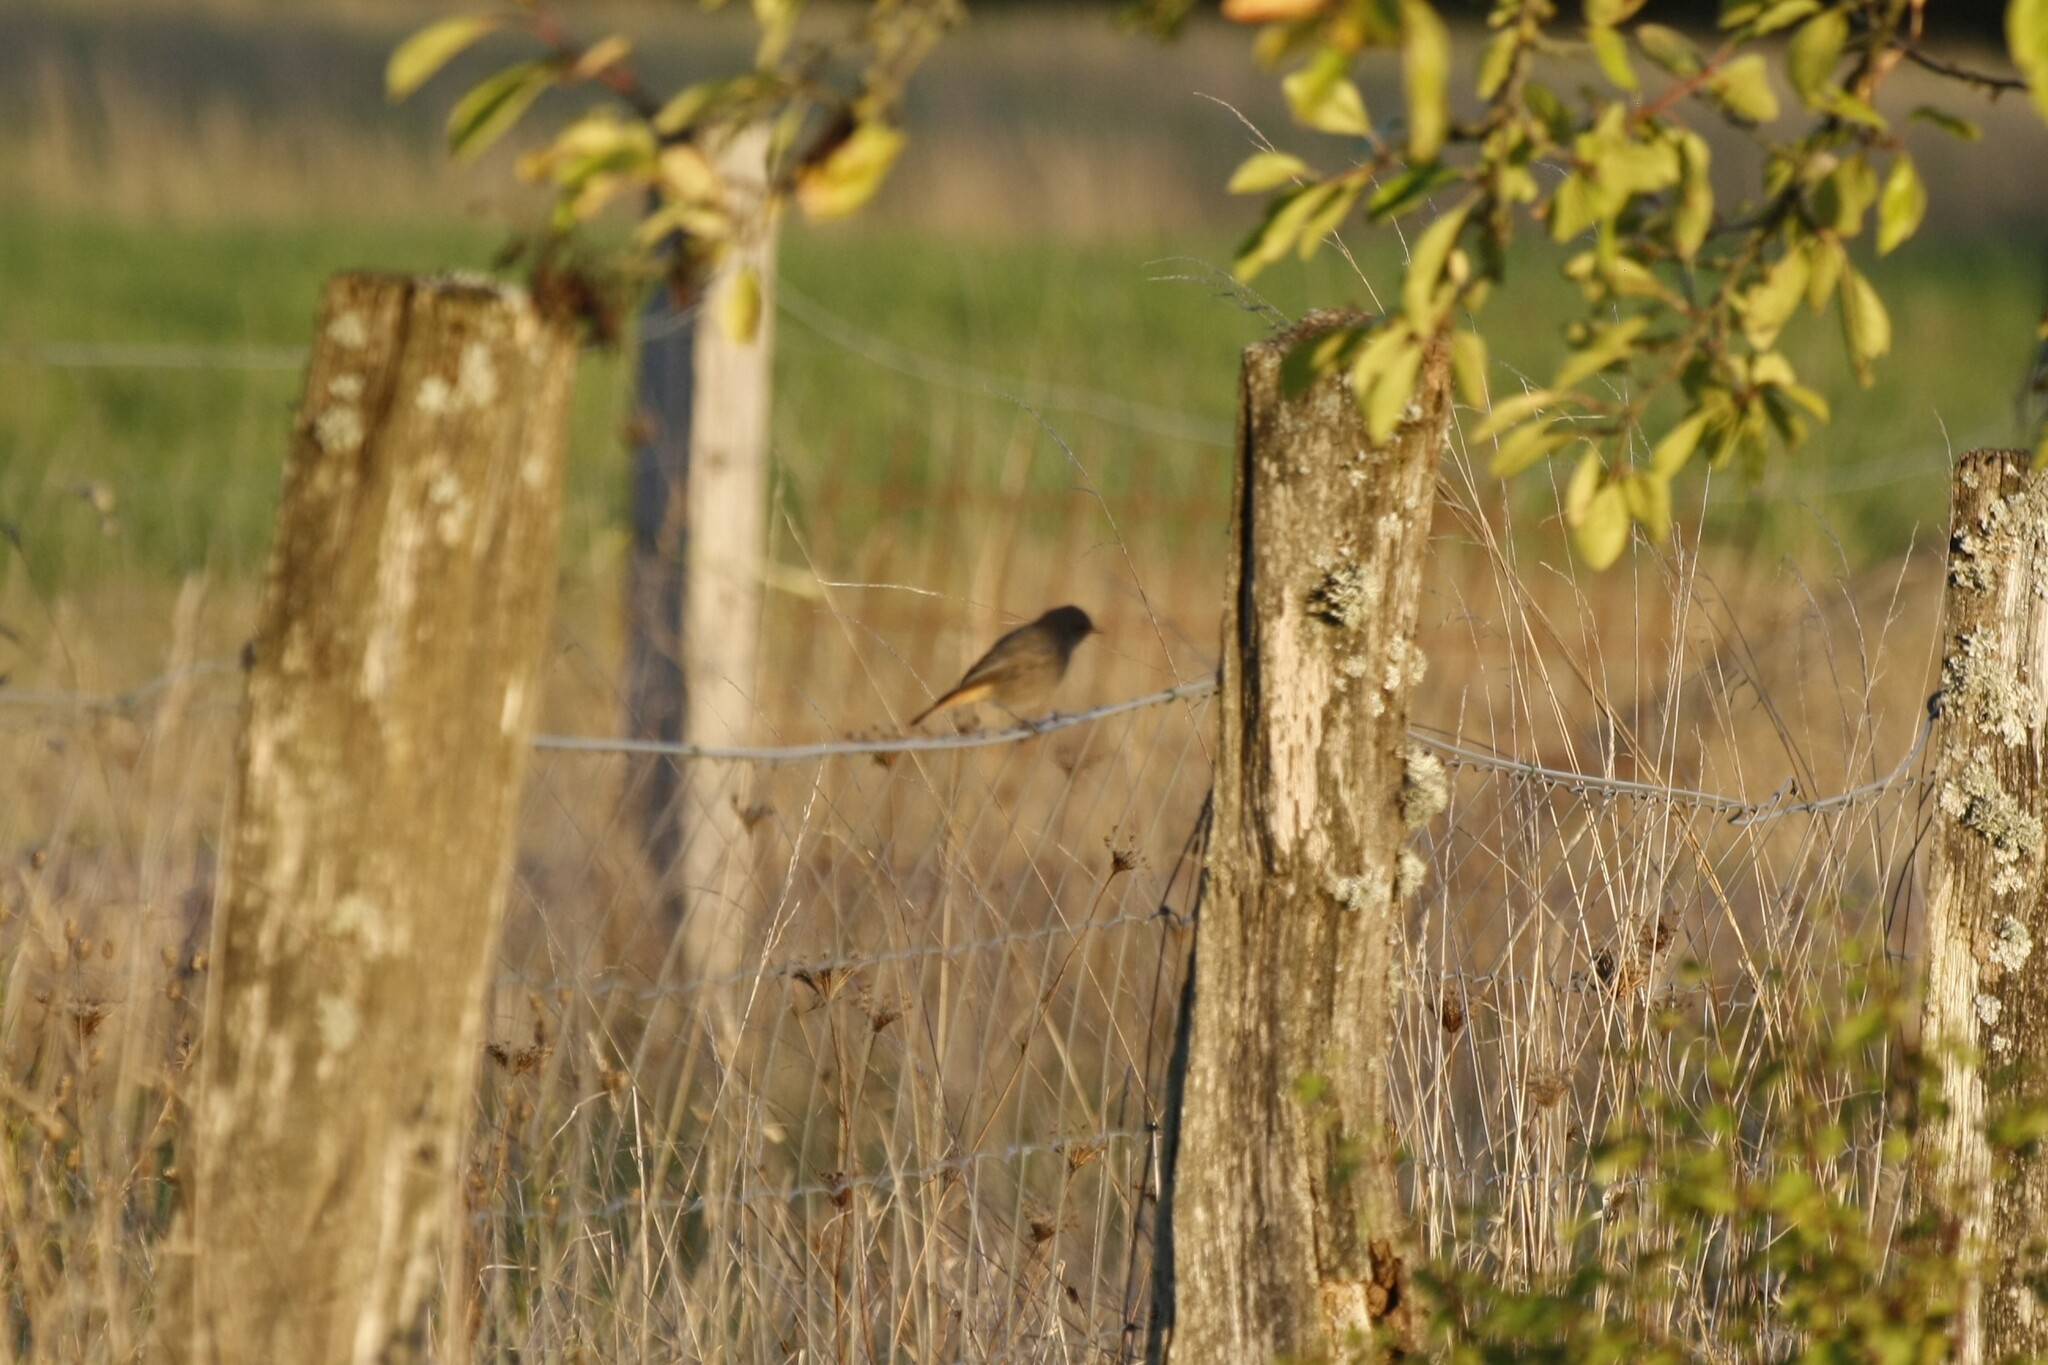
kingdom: Animalia
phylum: Chordata
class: Aves
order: Passeriformes
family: Muscicapidae
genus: Phoenicurus
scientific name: Phoenicurus ochruros
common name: Black redstart
